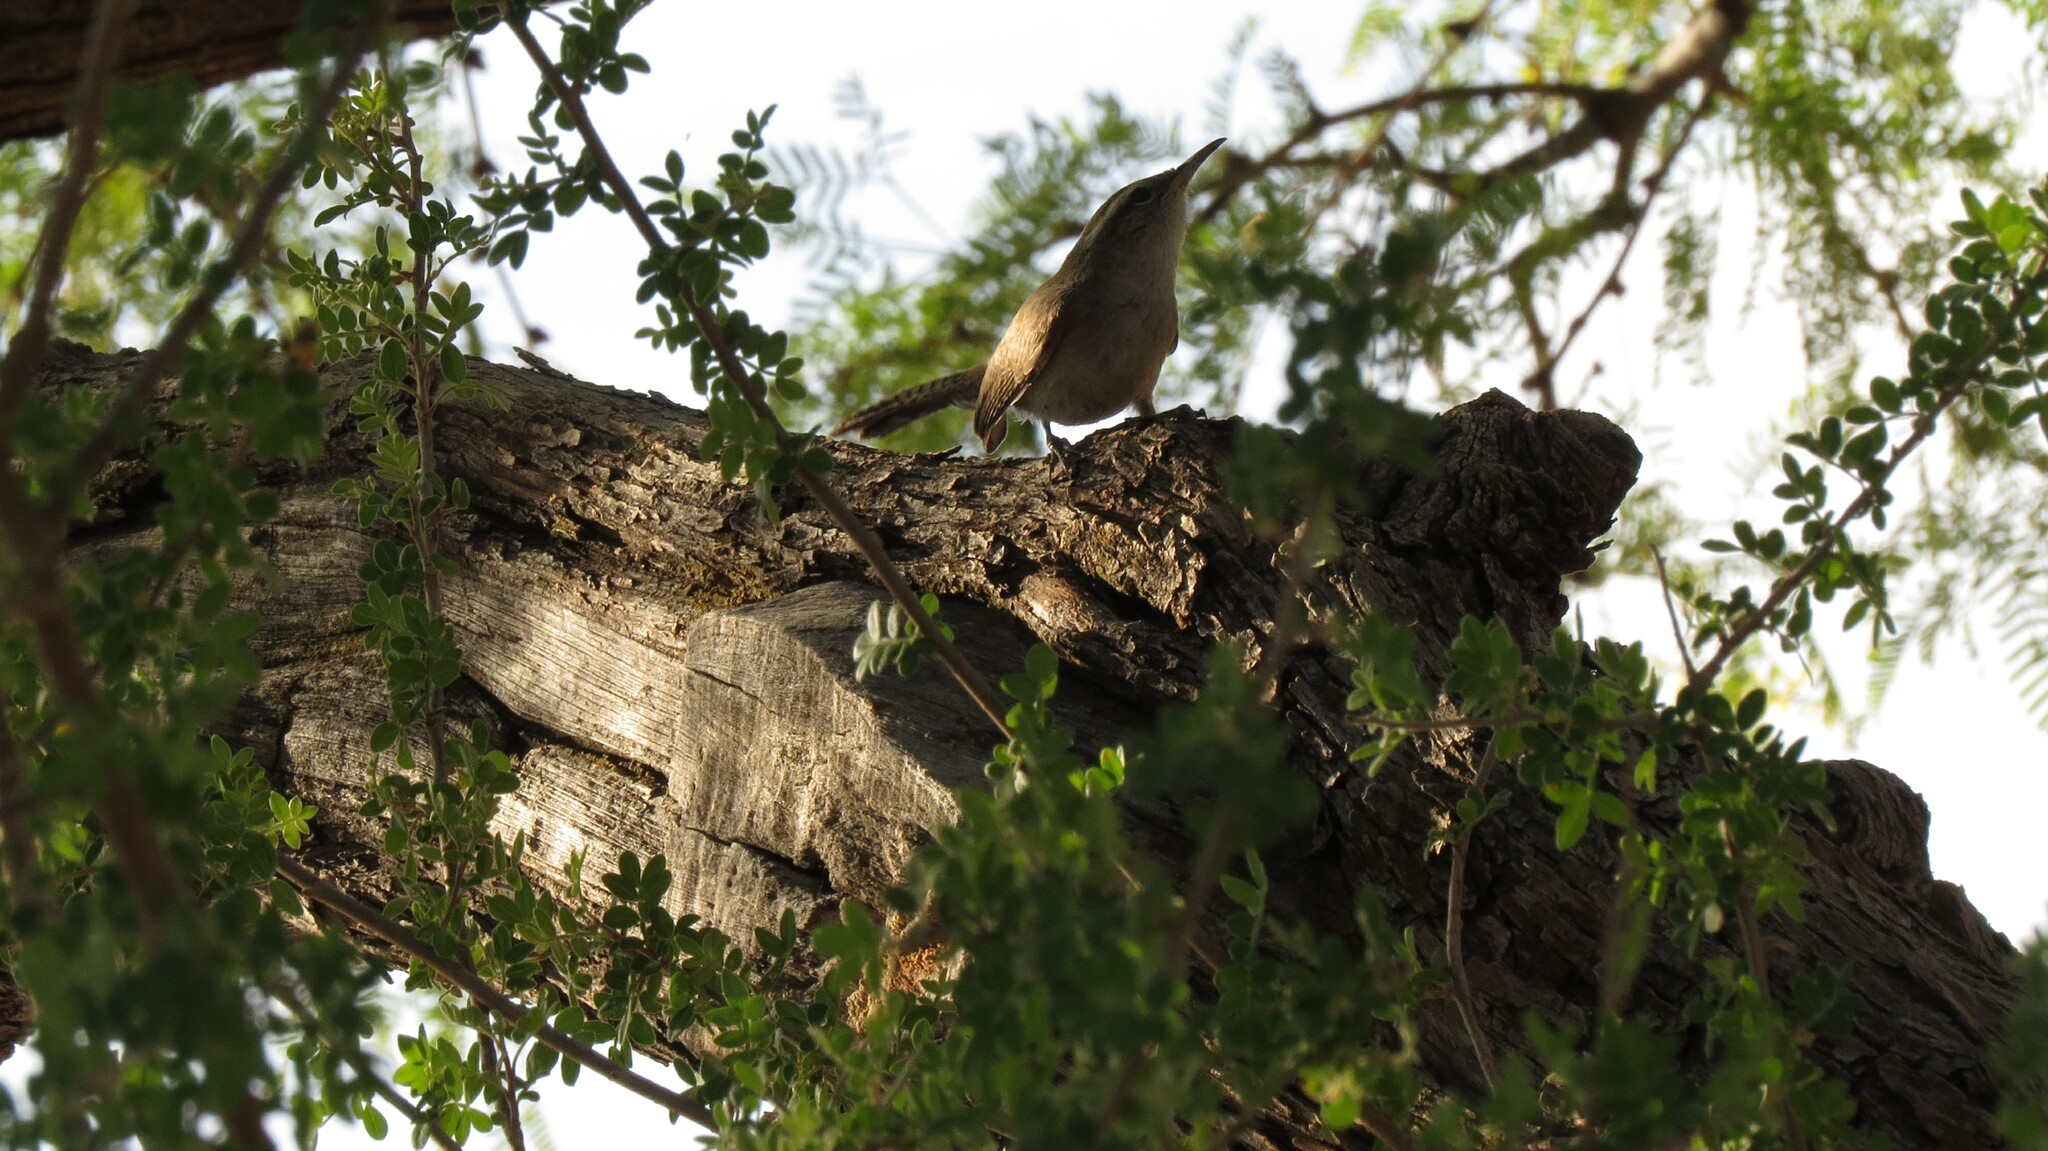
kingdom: Animalia
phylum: Chordata
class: Aves
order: Passeriformes
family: Troglodytidae
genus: Thryomanes
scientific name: Thryomanes bewickii
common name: Bewick's wren
